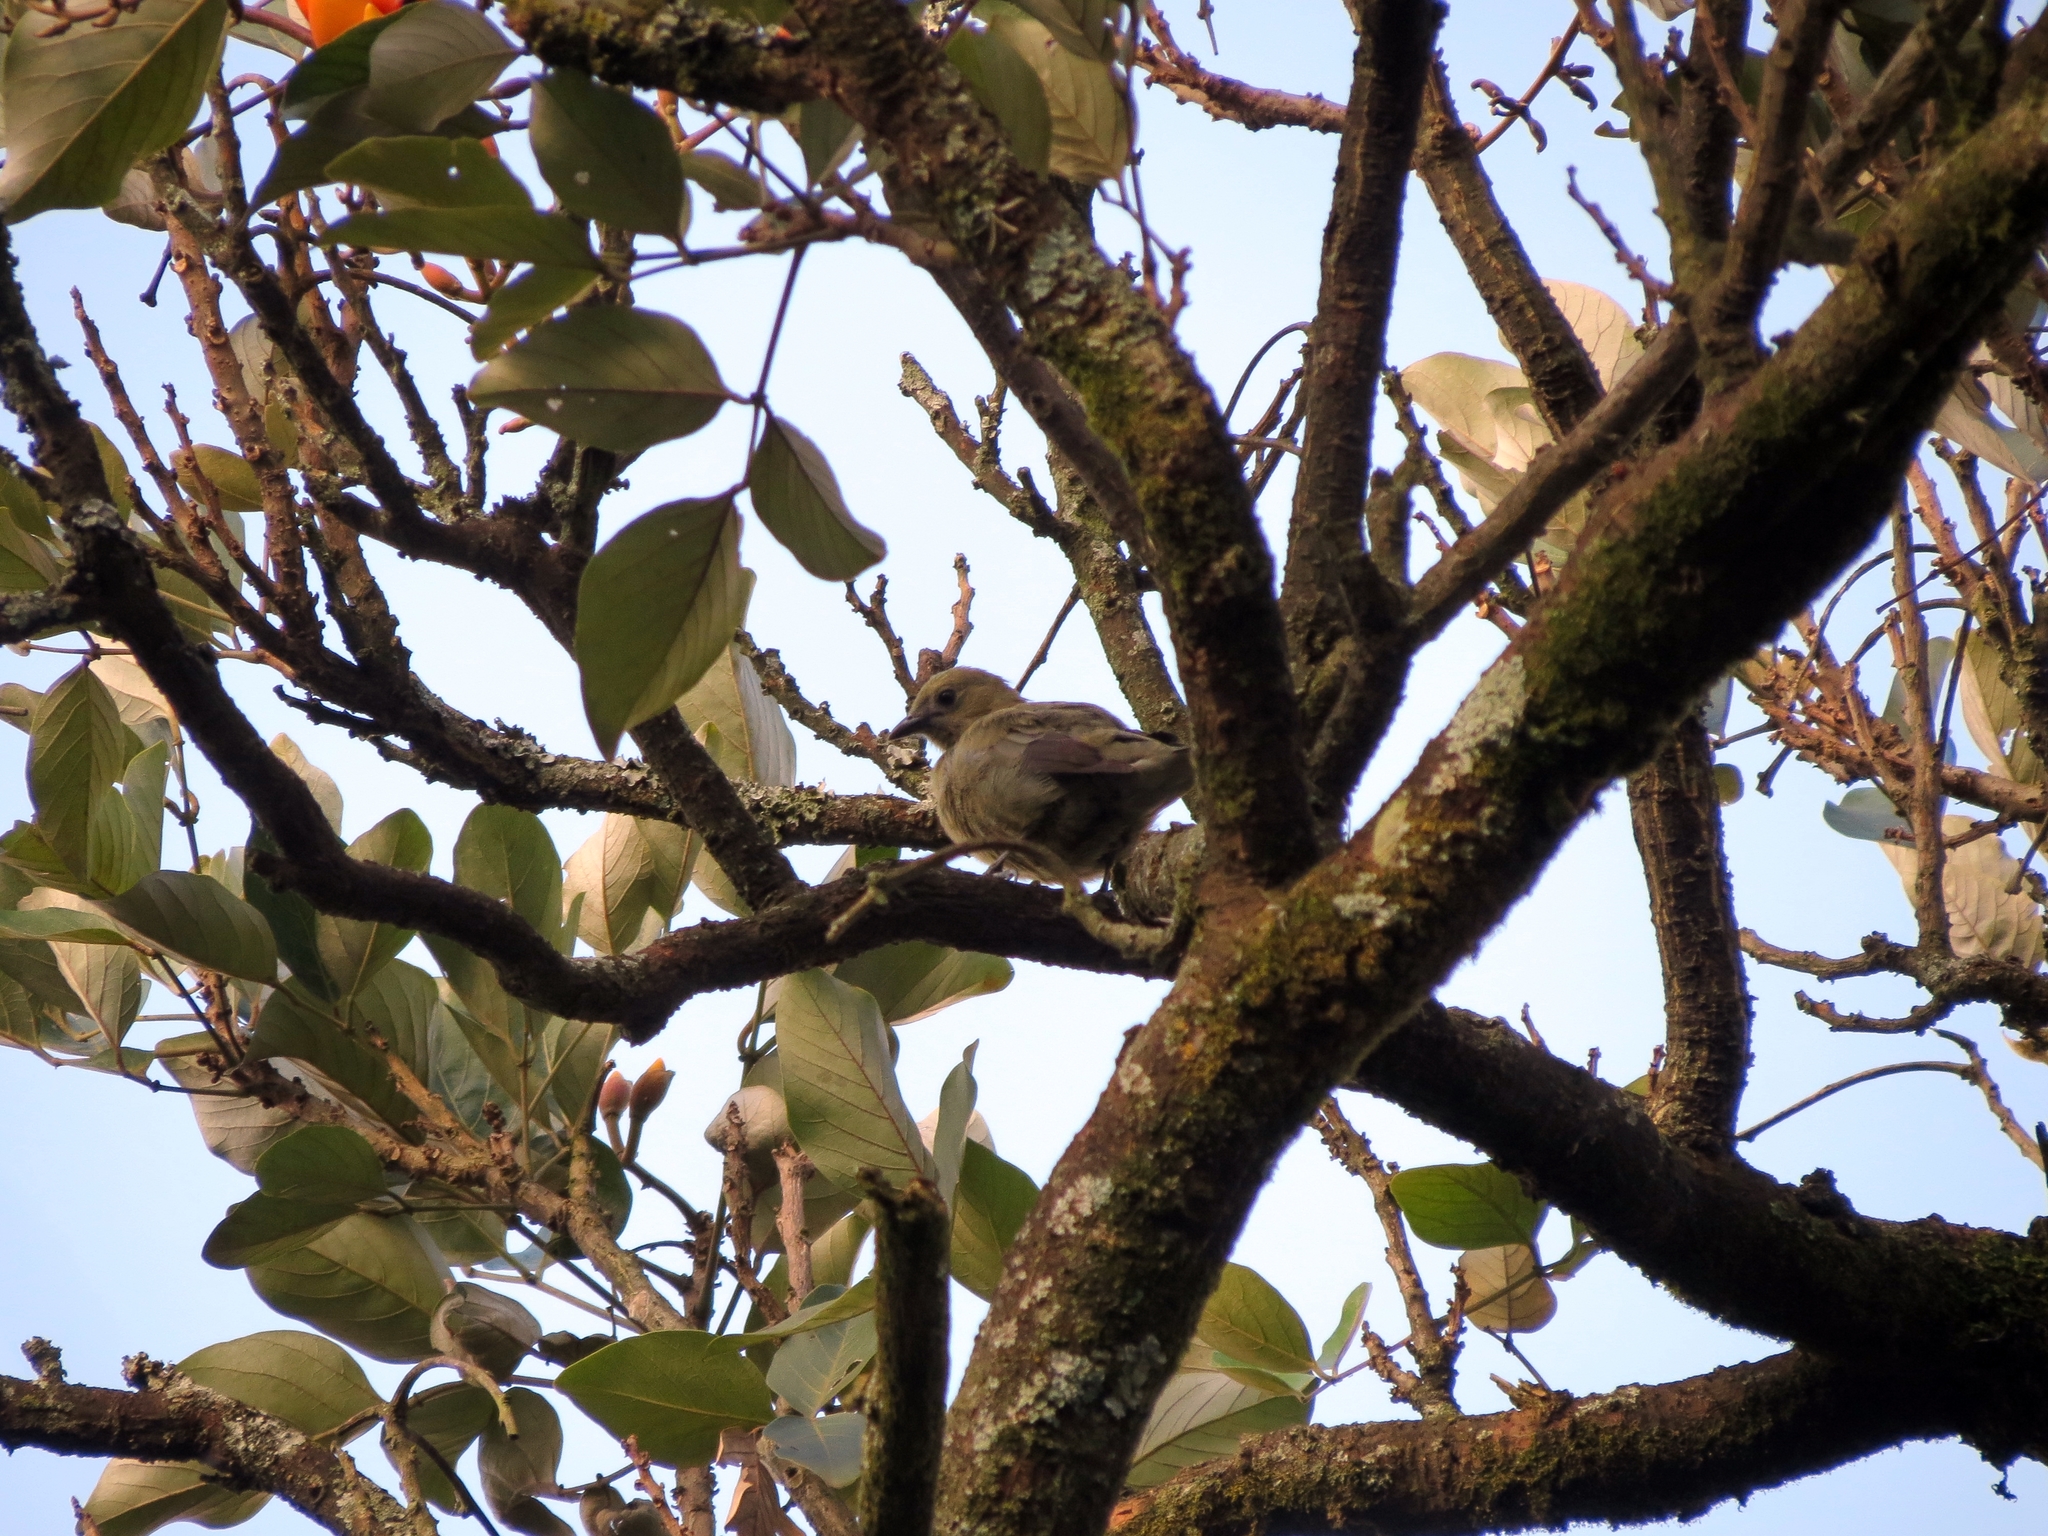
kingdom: Animalia
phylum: Chordata
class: Aves
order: Passeriformes
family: Thraupidae
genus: Thraupis
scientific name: Thraupis palmarum
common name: Palm tanager
